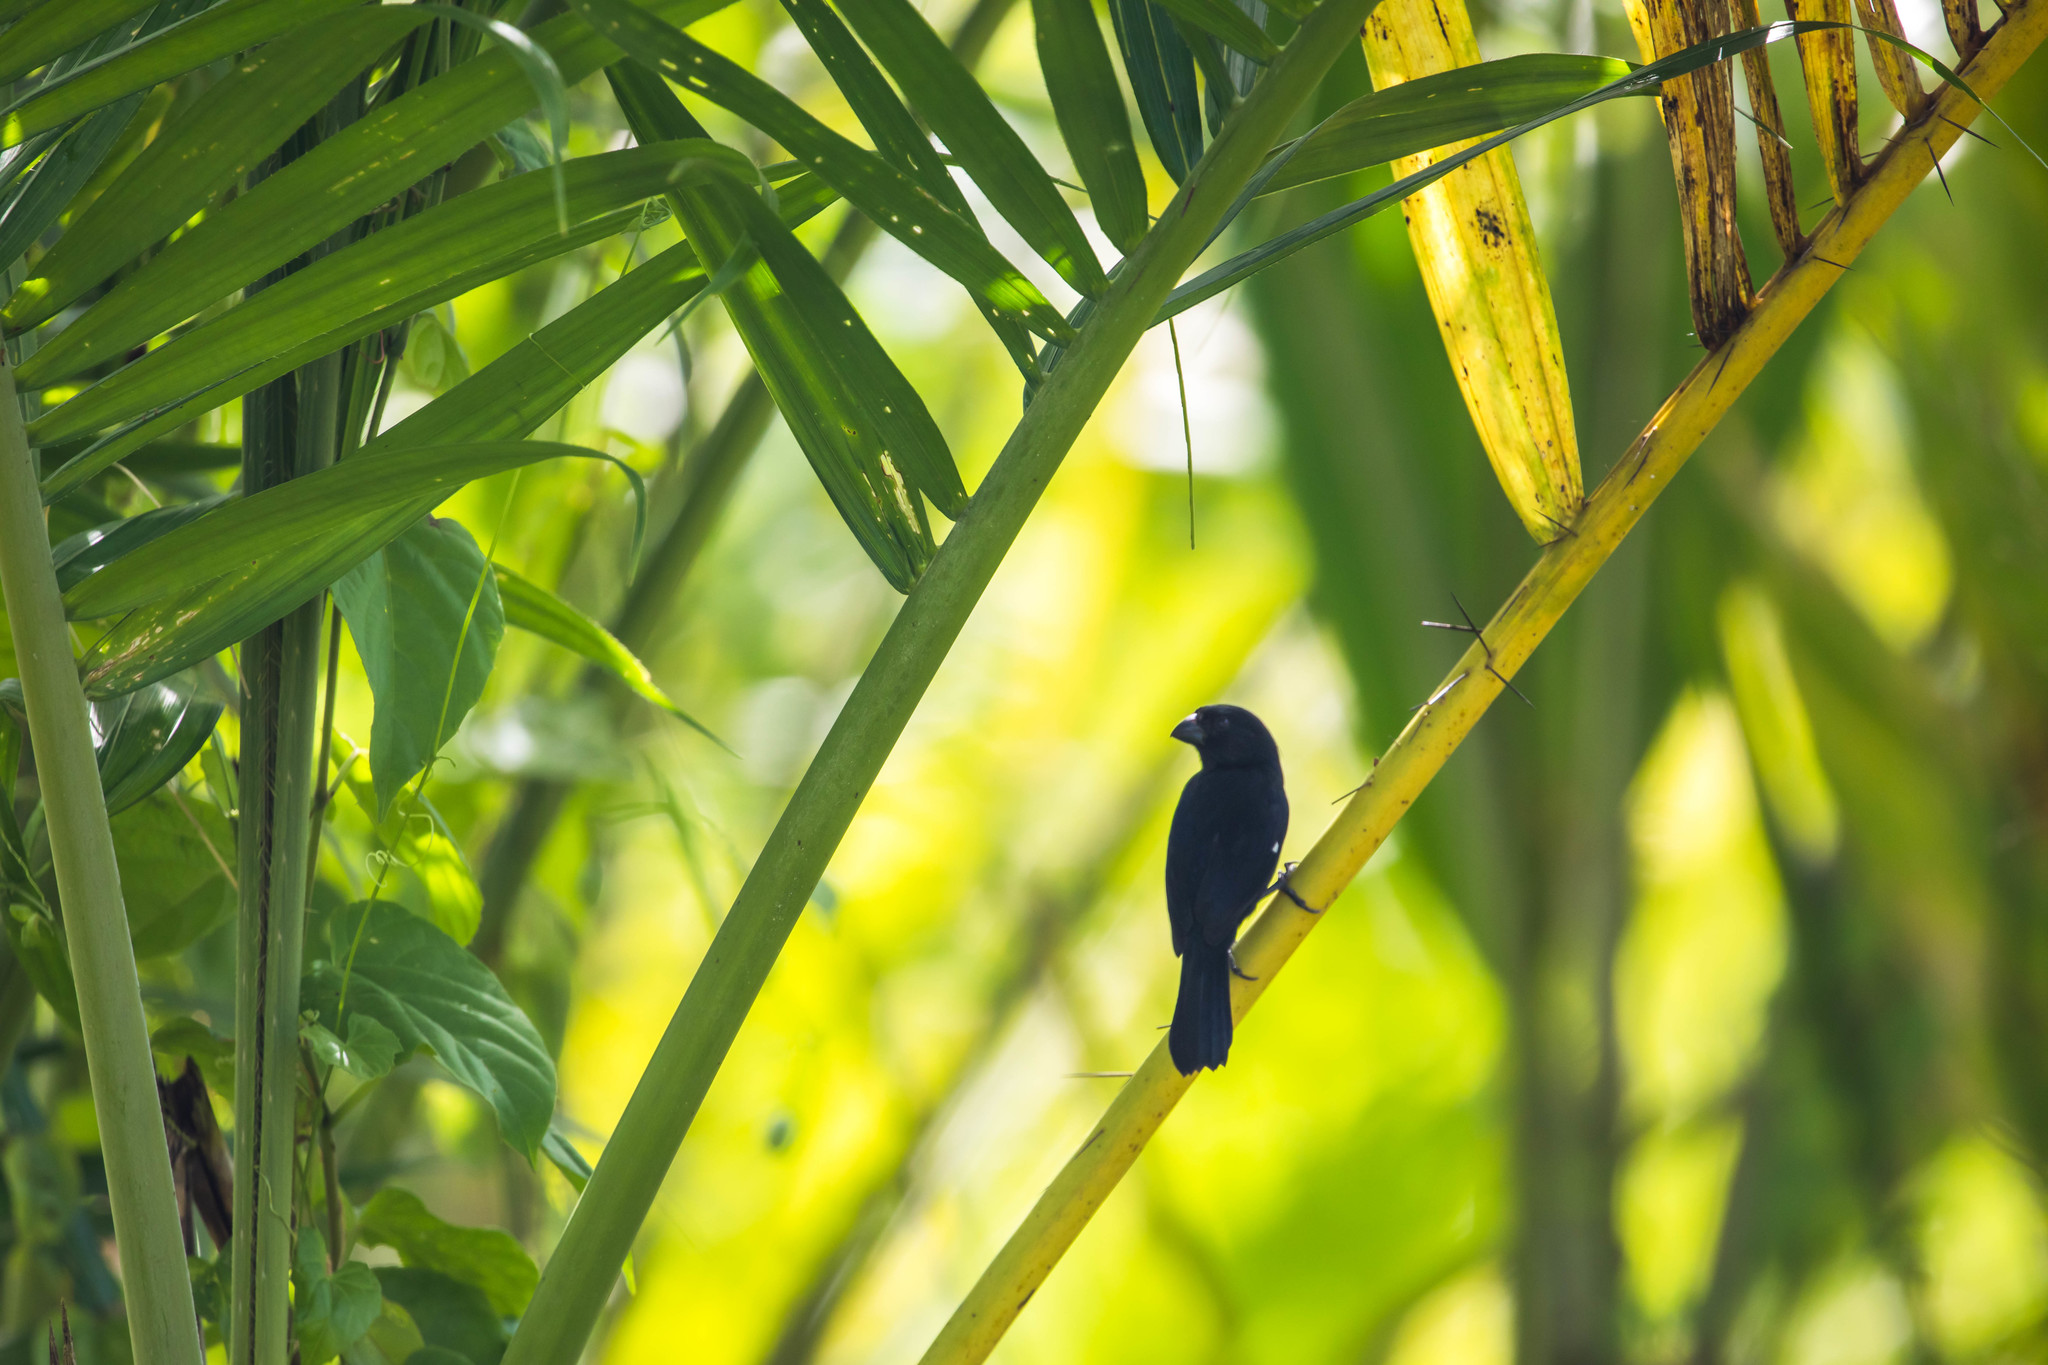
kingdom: Animalia
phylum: Chordata
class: Aves
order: Passeriformes
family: Thraupidae
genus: Sporophila
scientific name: Sporophila corvina
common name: Variable seedeater
